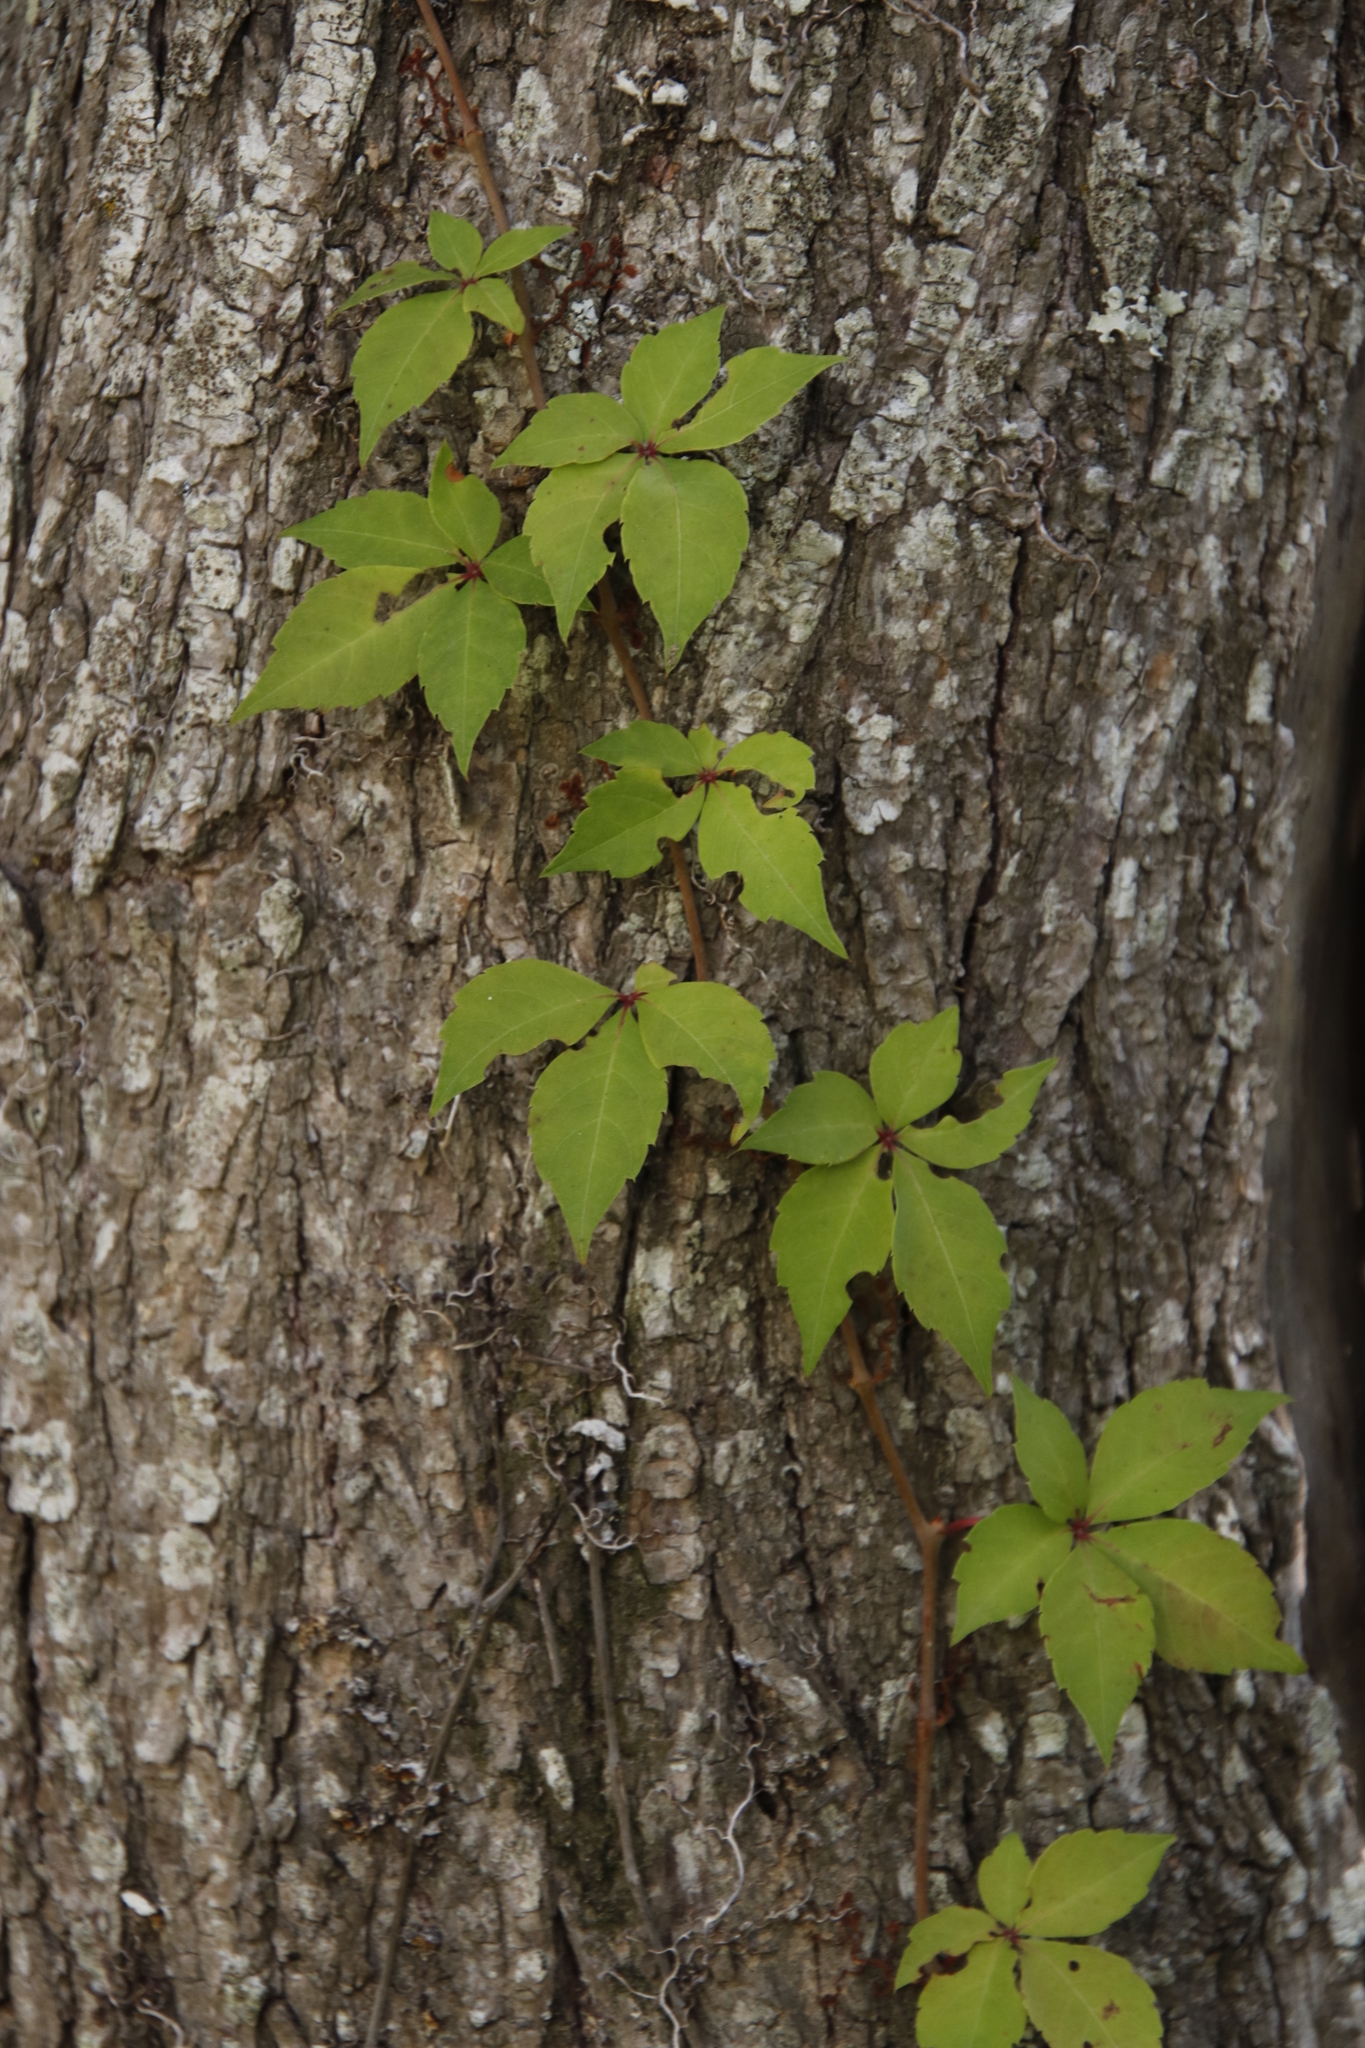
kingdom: Plantae
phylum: Tracheophyta
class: Magnoliopsida
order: Vitales
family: Vitaceae
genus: Parthenocissus
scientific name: Parthenocissus quinquefolia
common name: Virginia-creeper
